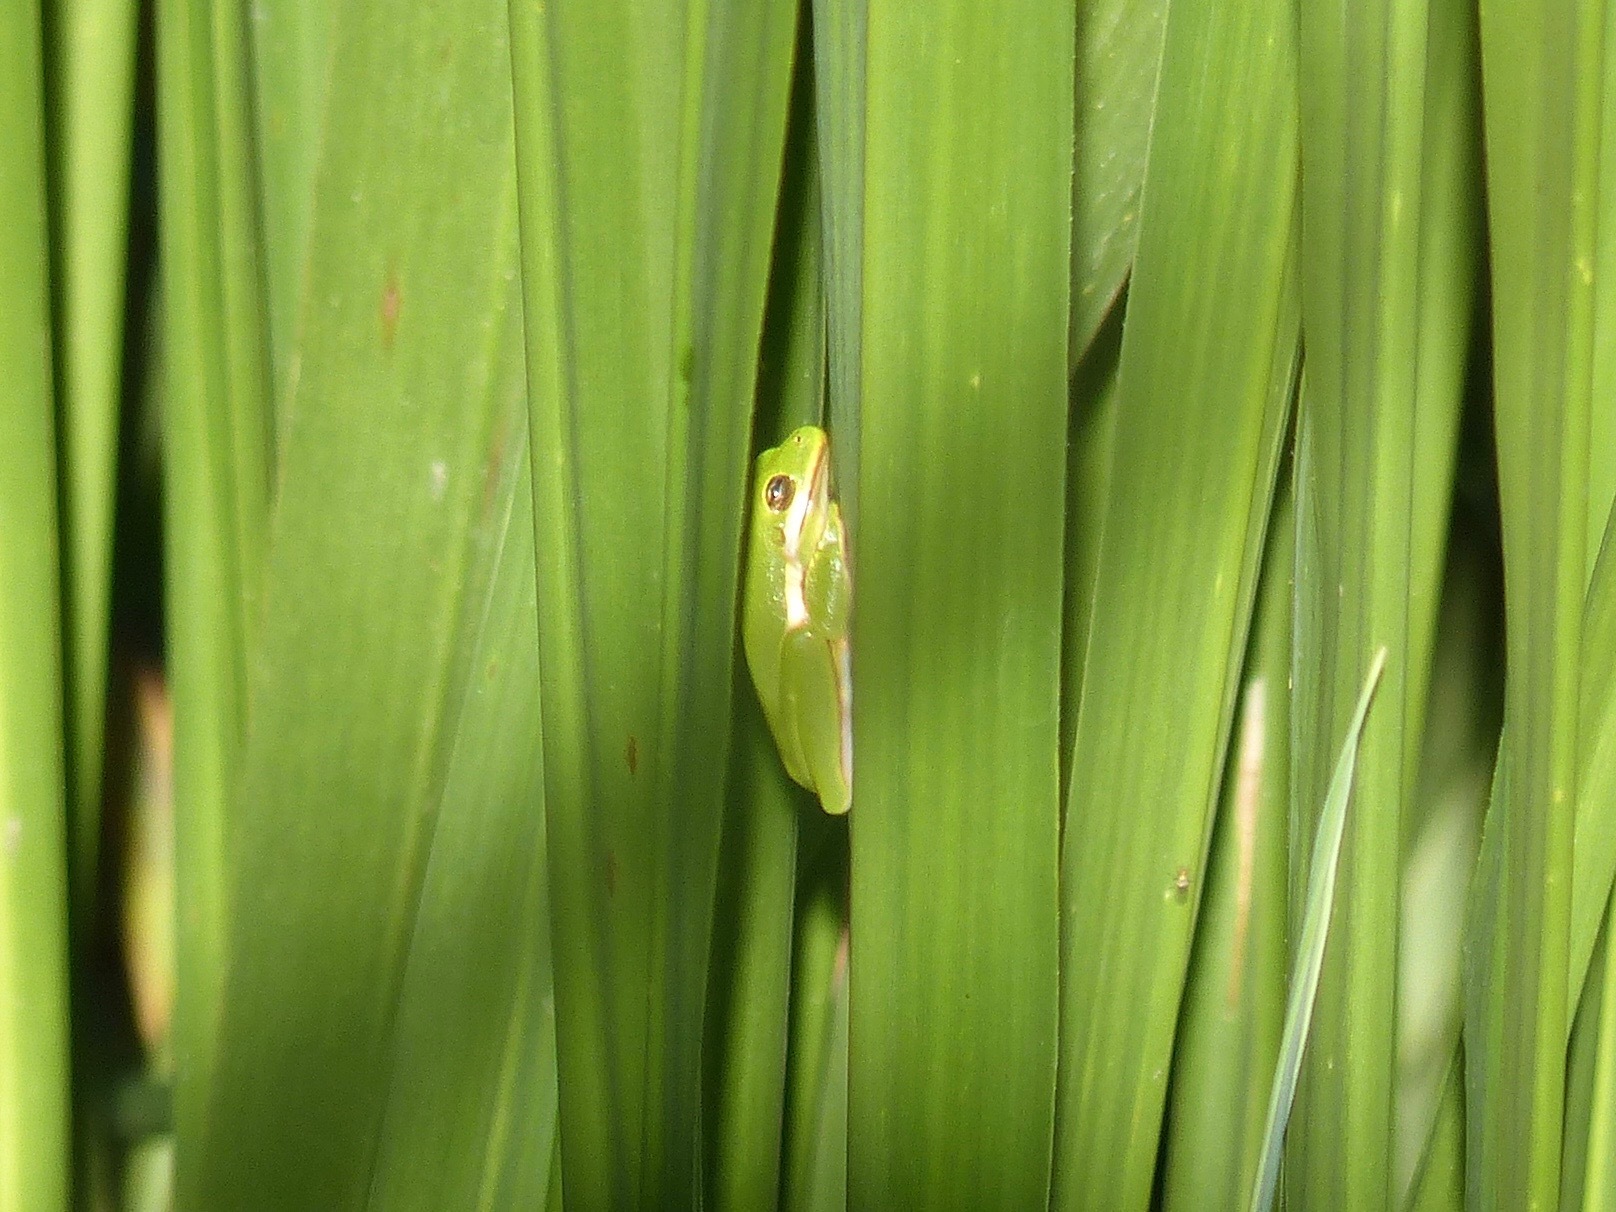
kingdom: Animalia
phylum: Chordata
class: Amphibia
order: Anura
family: Hylidae
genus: Dryophytes
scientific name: Dryophytes cinereus
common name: Green treefrog
